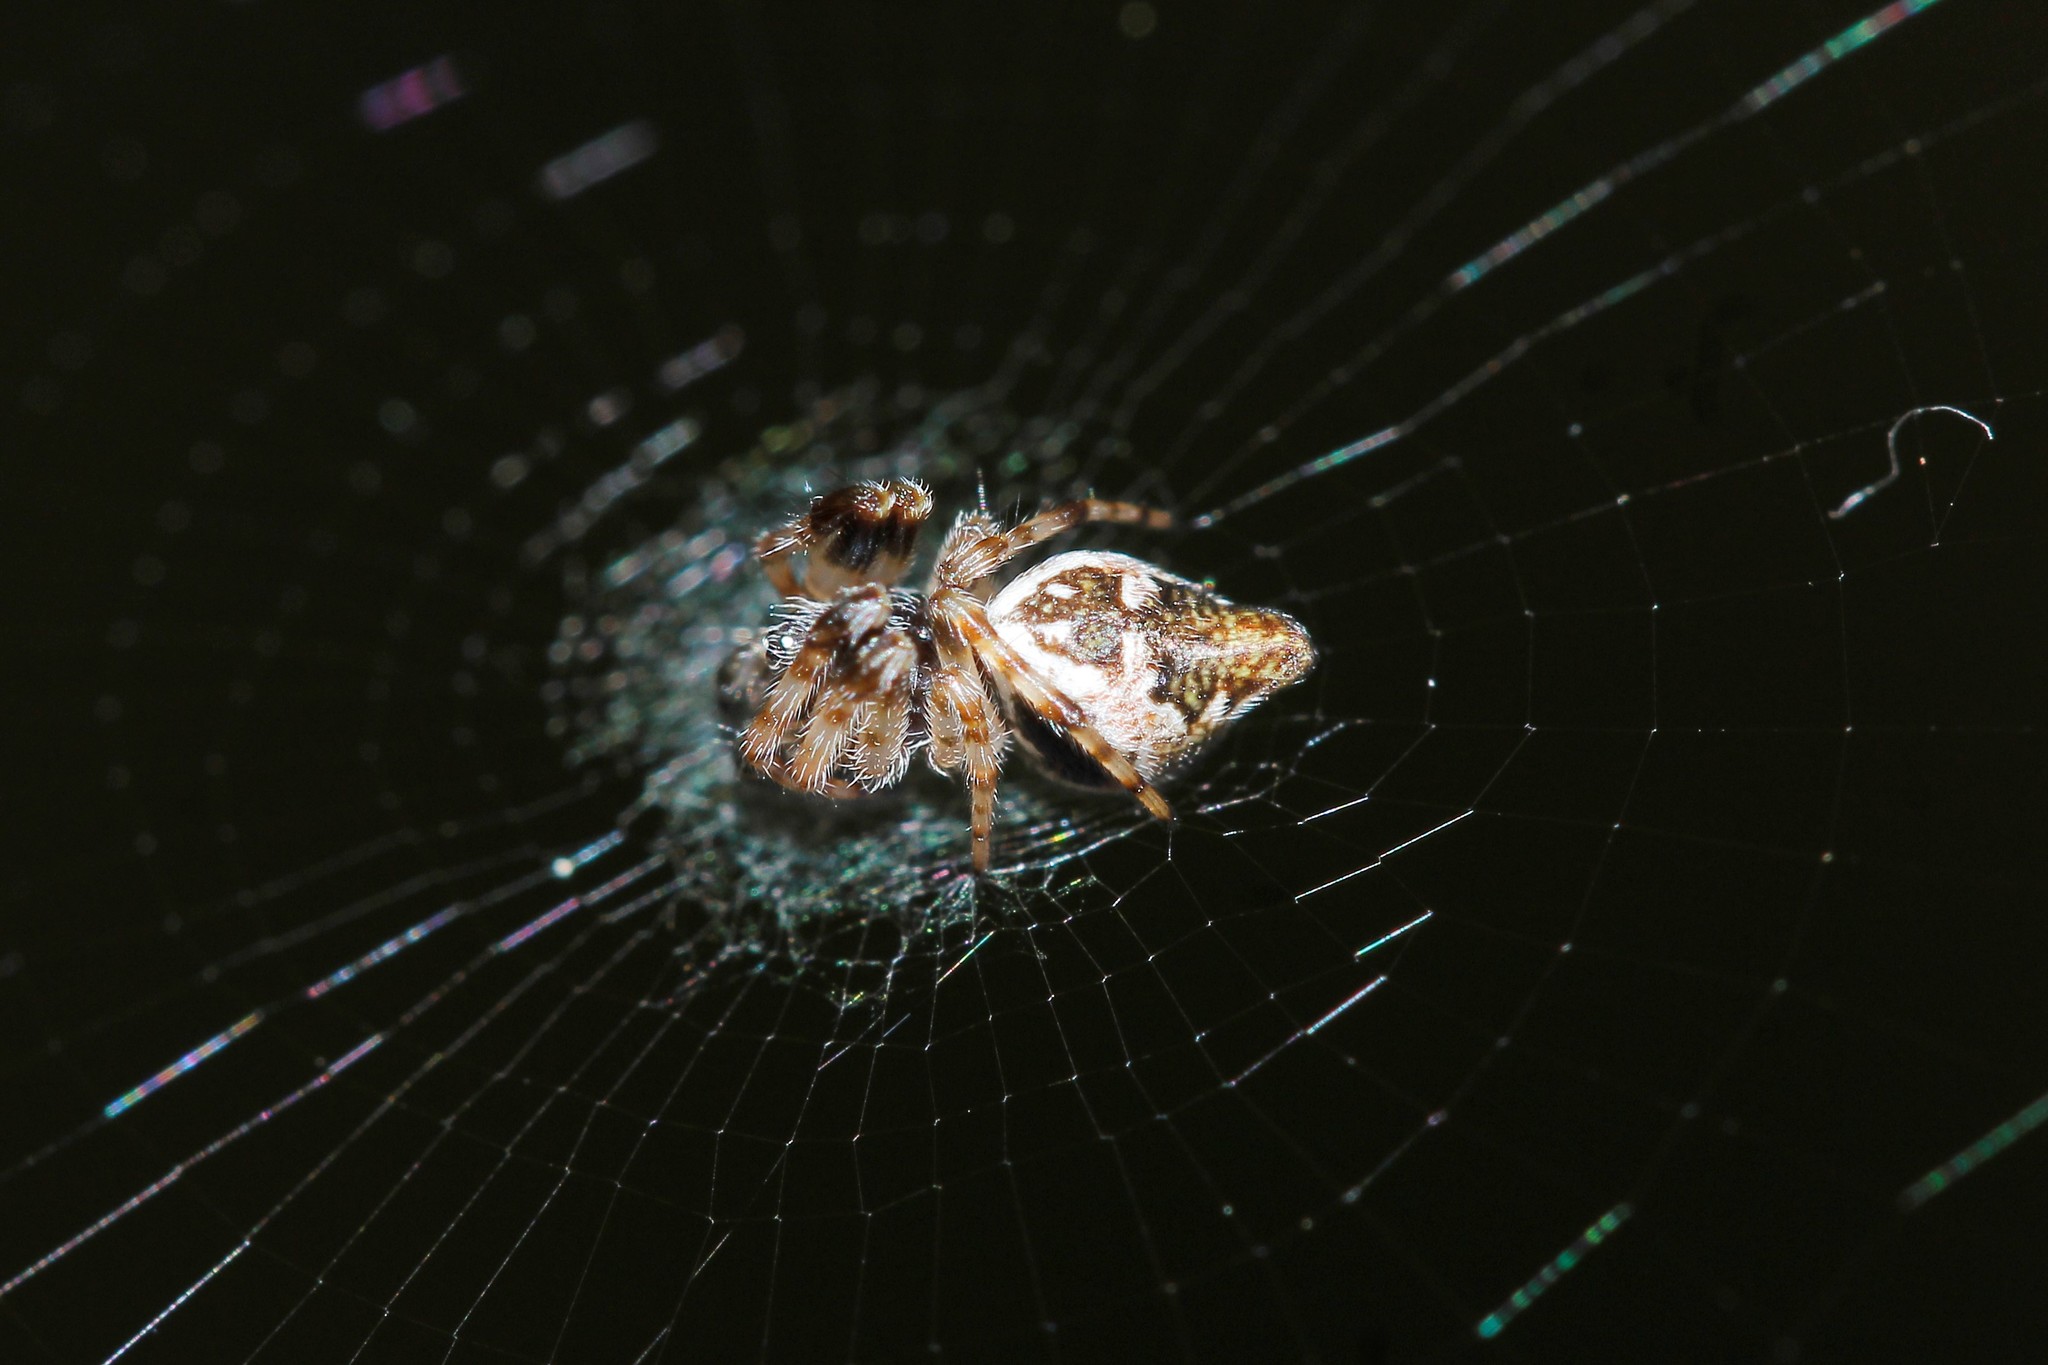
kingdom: Animalia
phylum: Arthropoda
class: Arachnida
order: Araneae
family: Araneidae
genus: Cyclosa
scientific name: Cyclosa conica
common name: Conical trashline orbweaver
